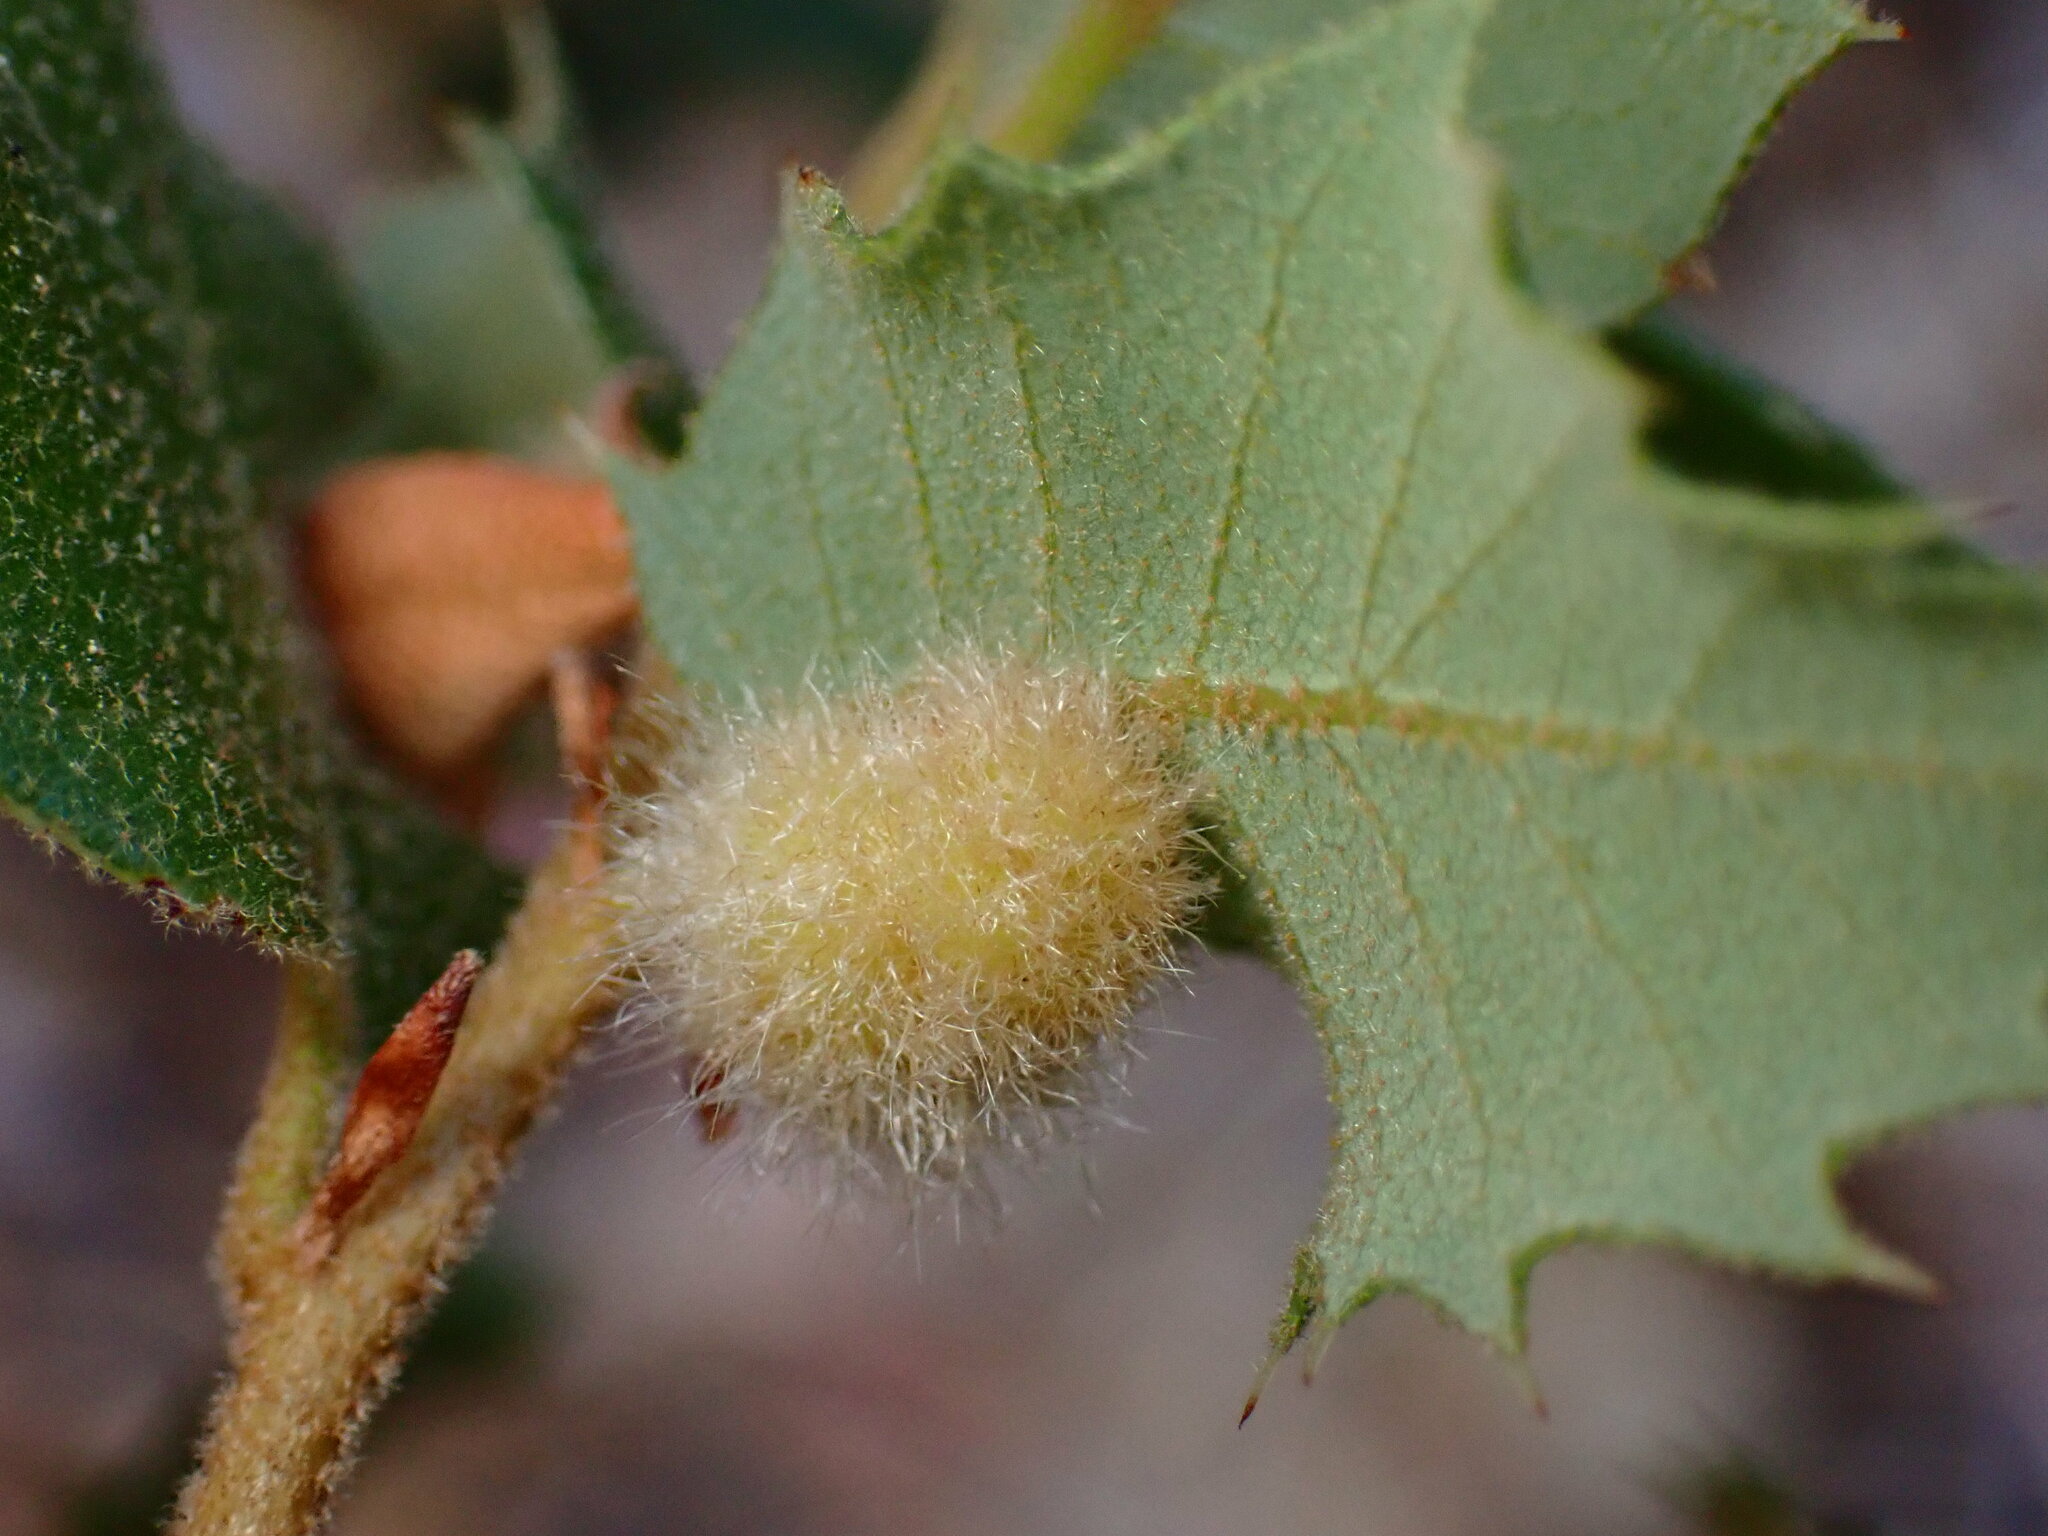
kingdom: Animalia
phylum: Arthropoda
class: Insecta
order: Hymenoptera
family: Cynipidae
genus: Disholandricus
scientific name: Disholandricus
